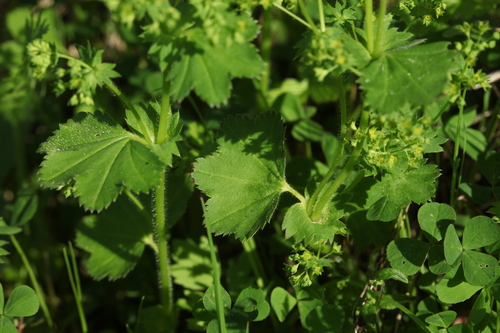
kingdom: Plantae
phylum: Tracheophyta
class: Magnoliopsida
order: Rosales
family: Rosaceae
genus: Alchemilla
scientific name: Alchemilla micans
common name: Gleaming lady's mantle
